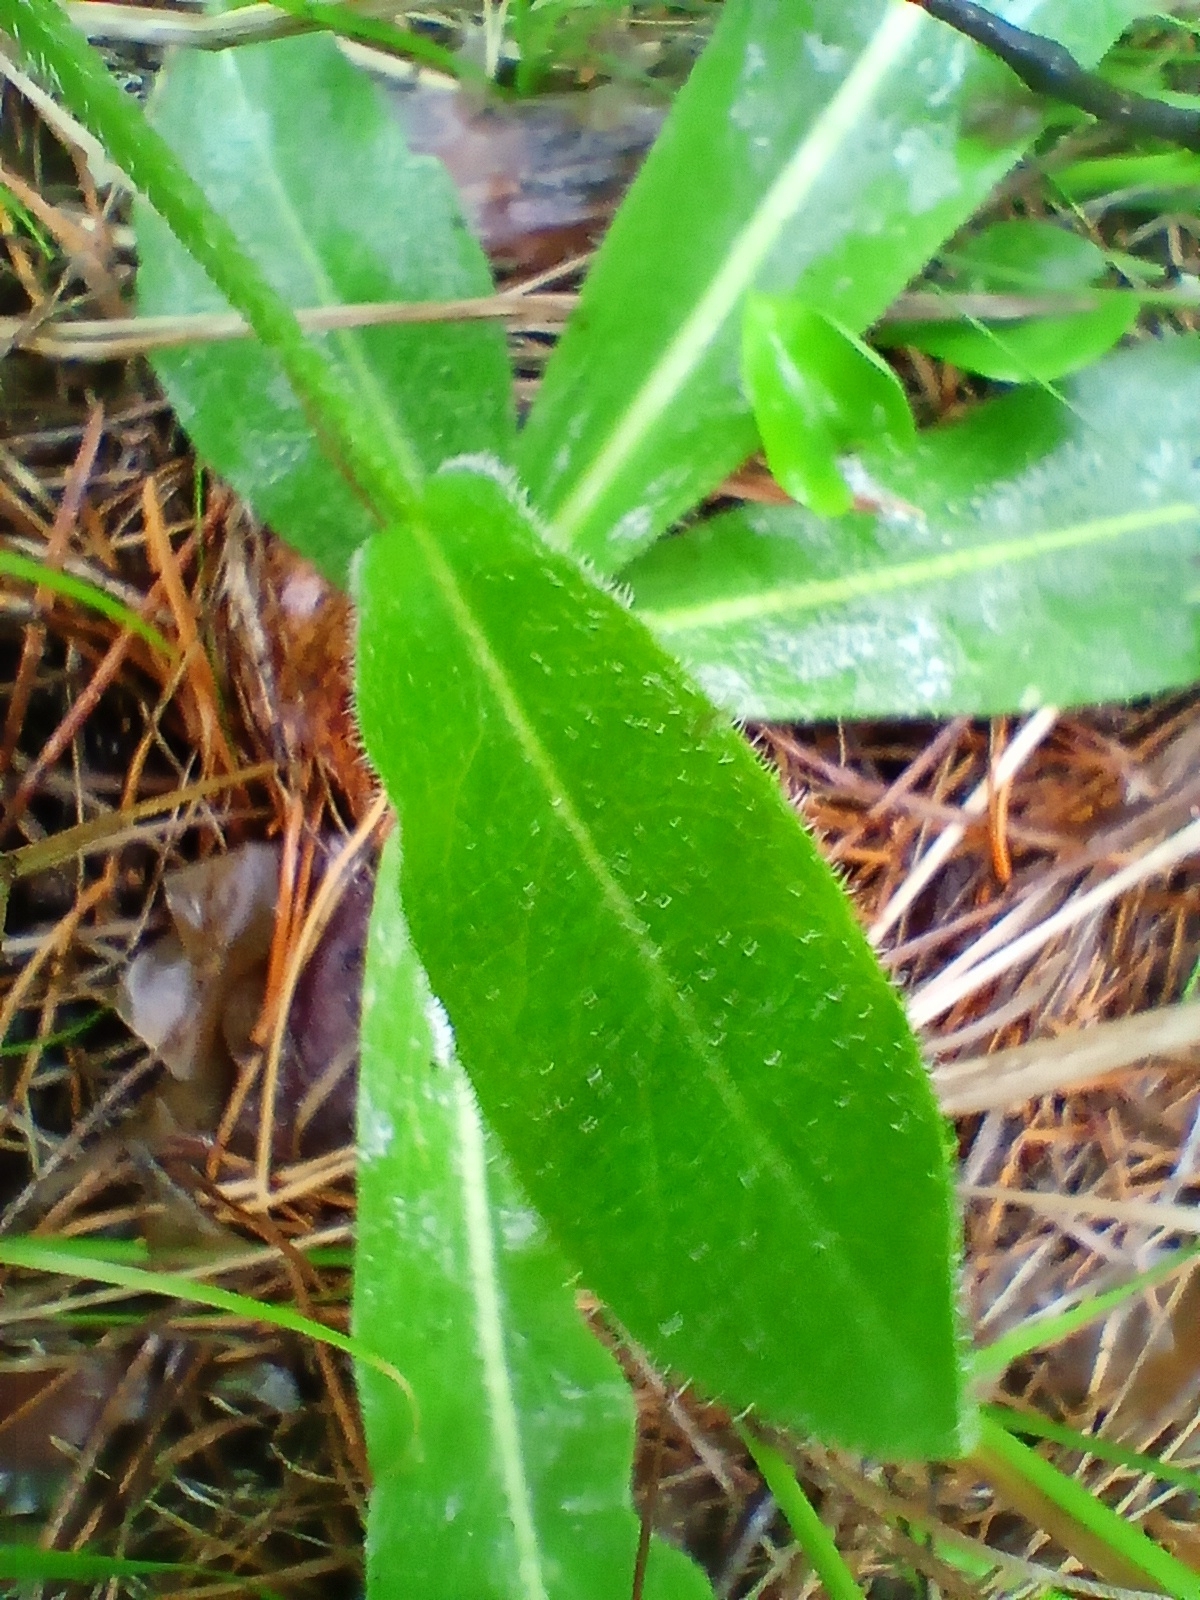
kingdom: Plantae
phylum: Tracheophyta
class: Magnoliopsida
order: Asterales
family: Asteraceae
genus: Trommsdorffia
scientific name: Trommsdorffia maculata
